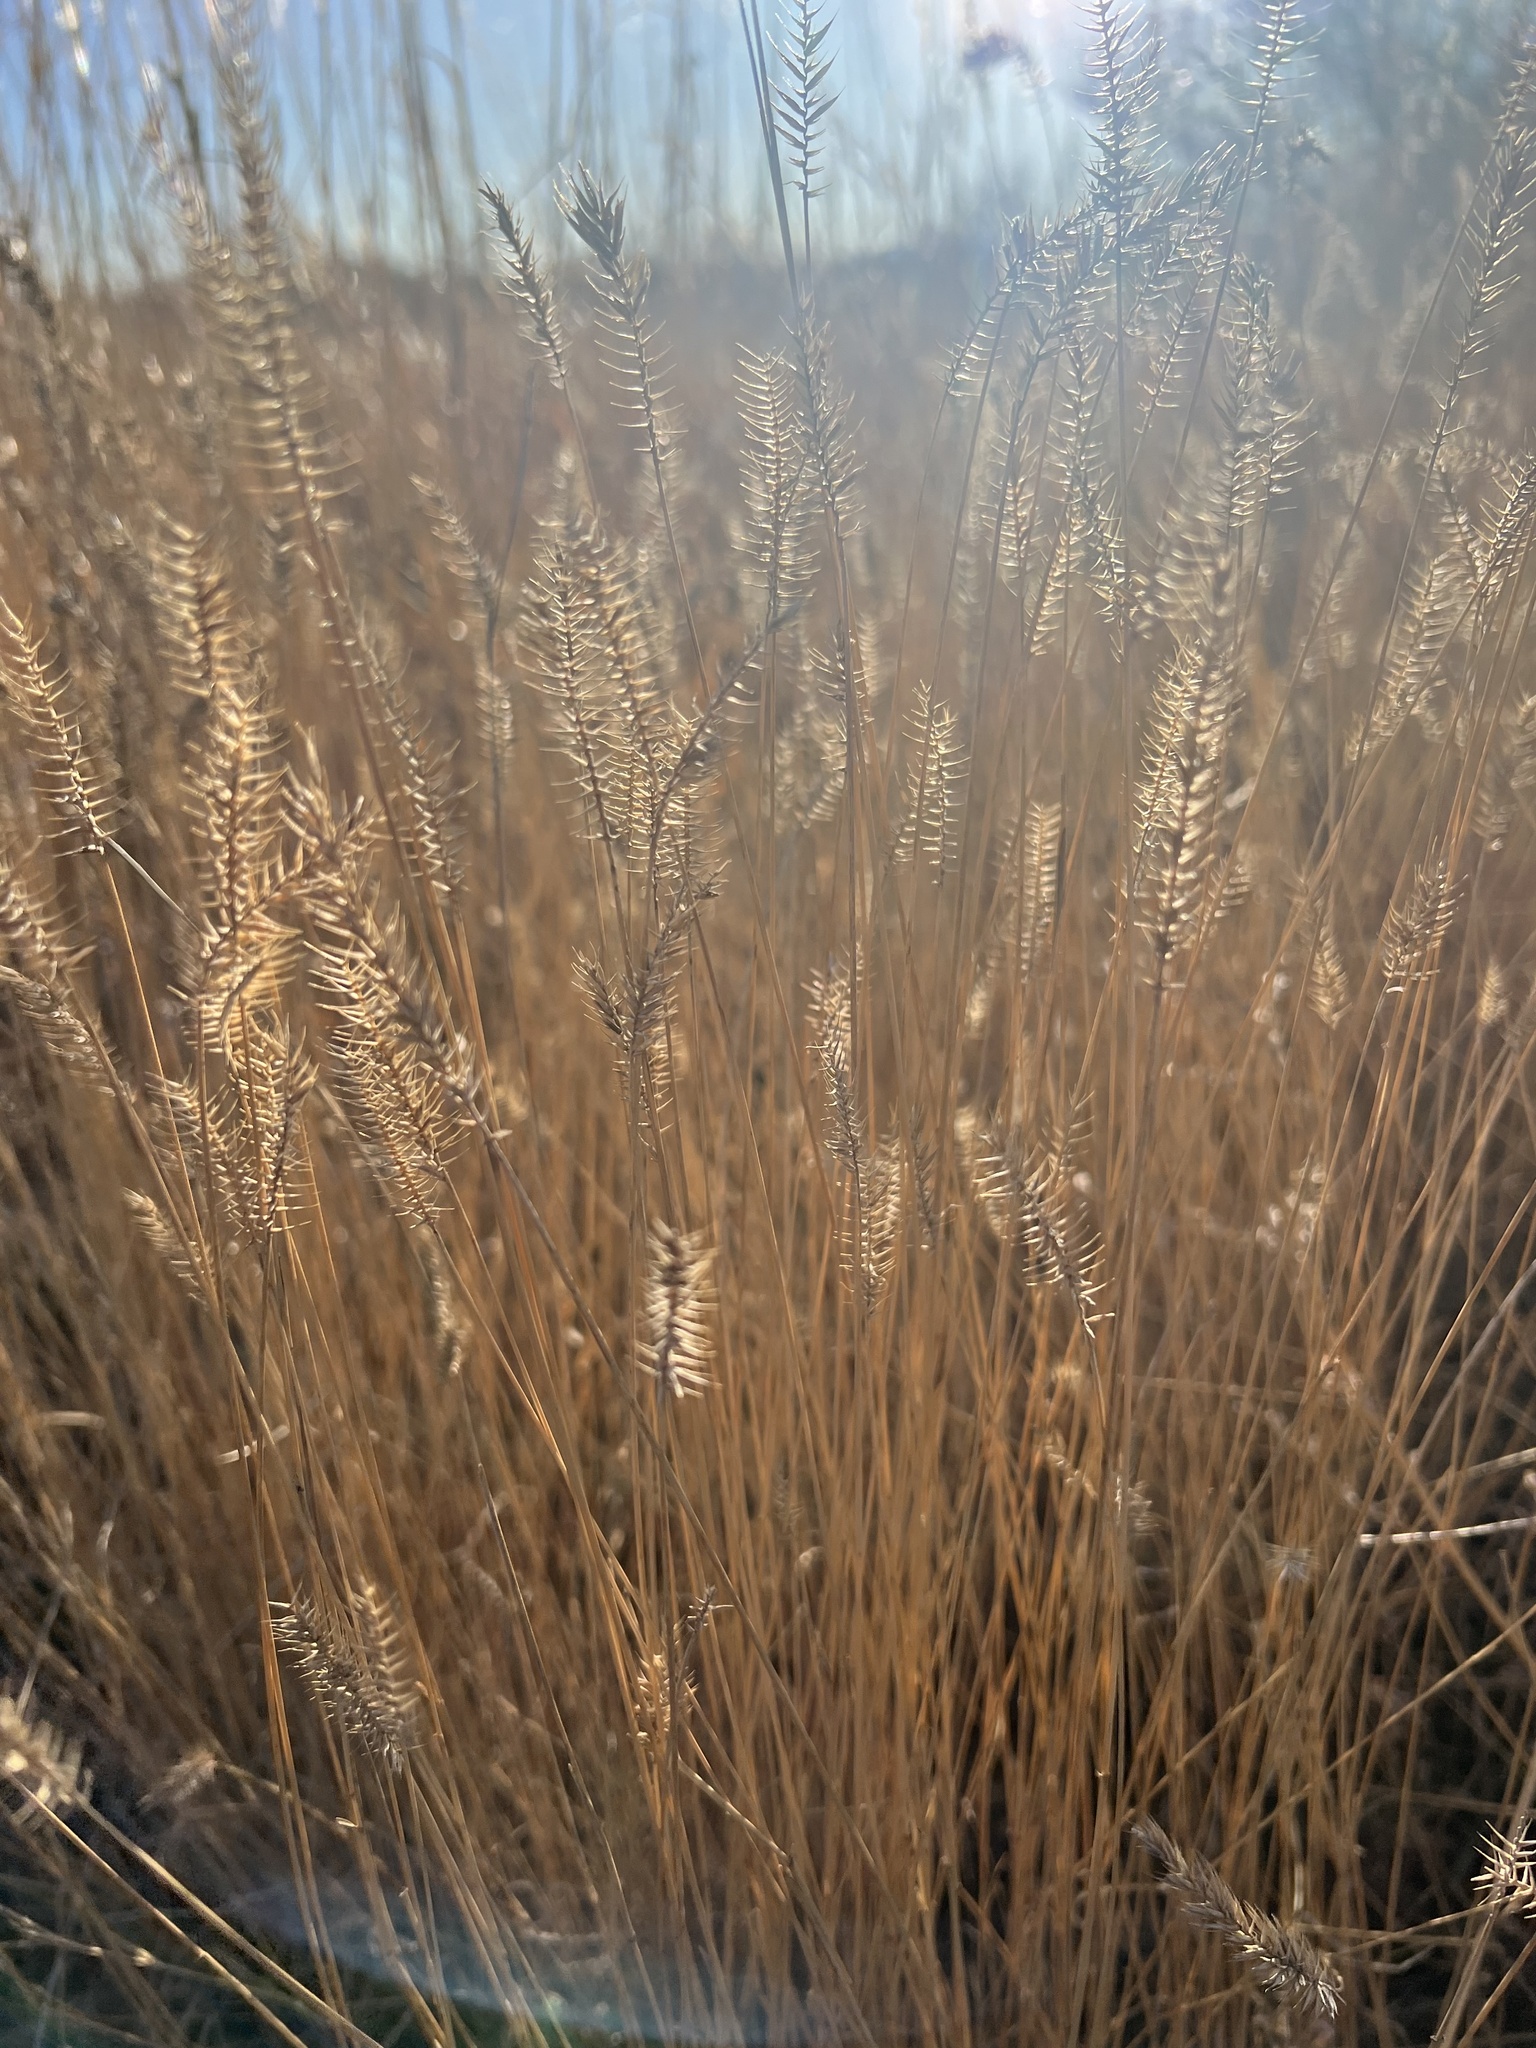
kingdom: Plantae
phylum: Tracheophyta
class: Liliopsida
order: Poales
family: Poaceae
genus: Agropyron
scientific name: Agropyron cristatum
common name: Crested wheatgrass
